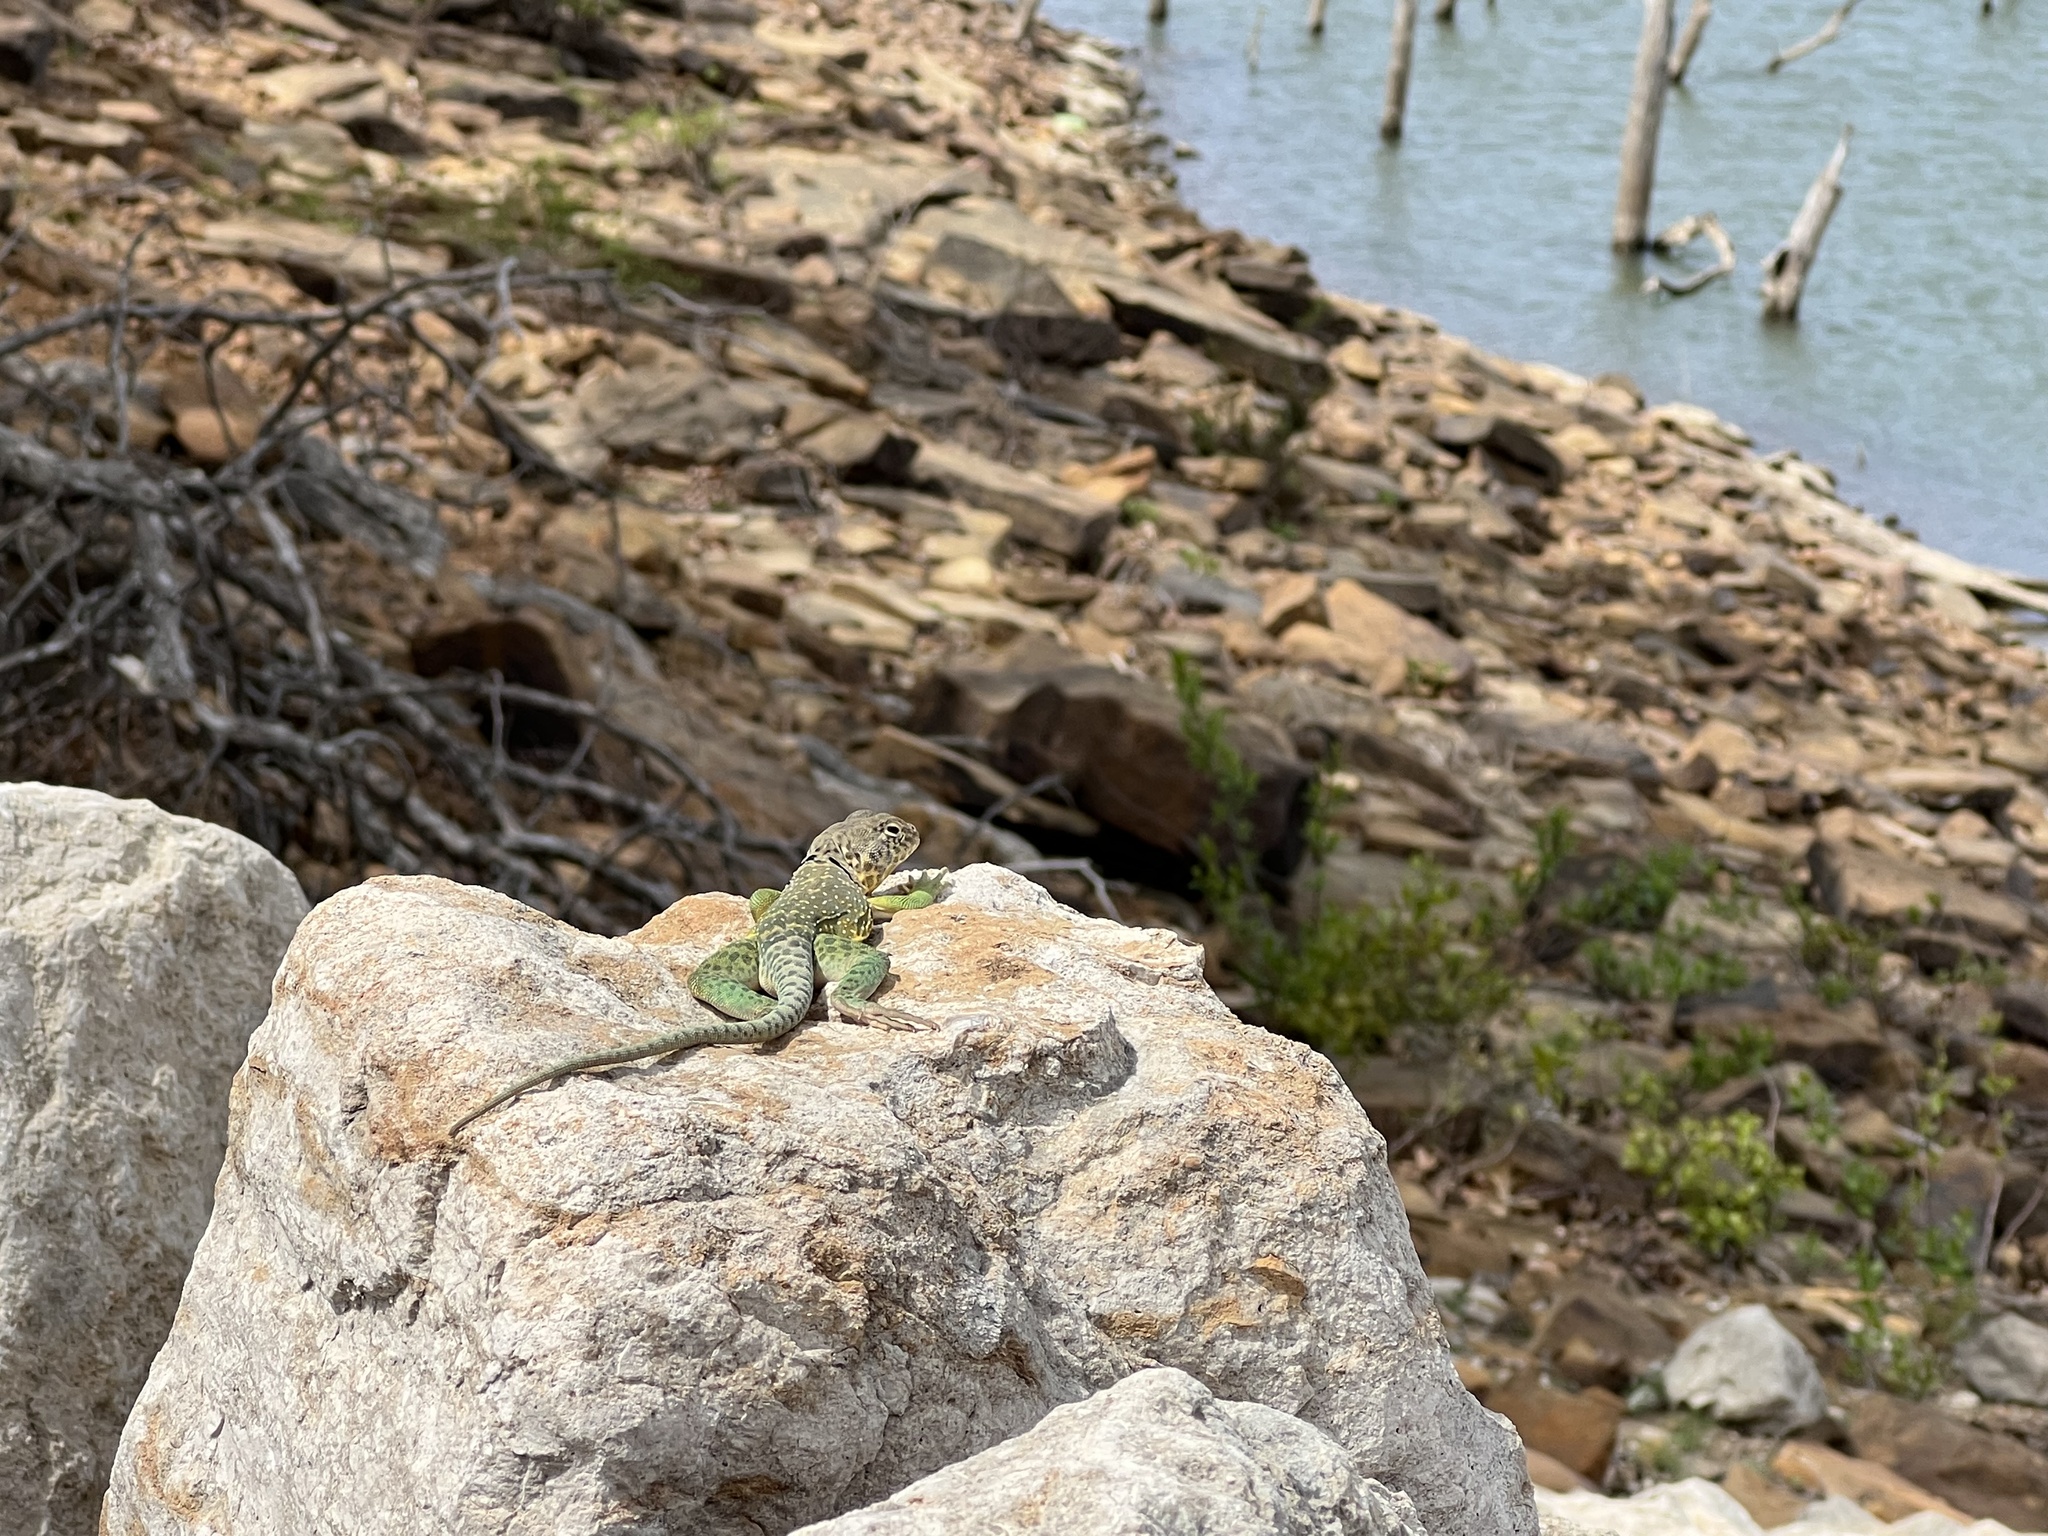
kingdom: Animalia
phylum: Chordata
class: Squamata
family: Crotaphytidae
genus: Crotaphytus
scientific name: Crotaphytus collaris
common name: Collared lizard
